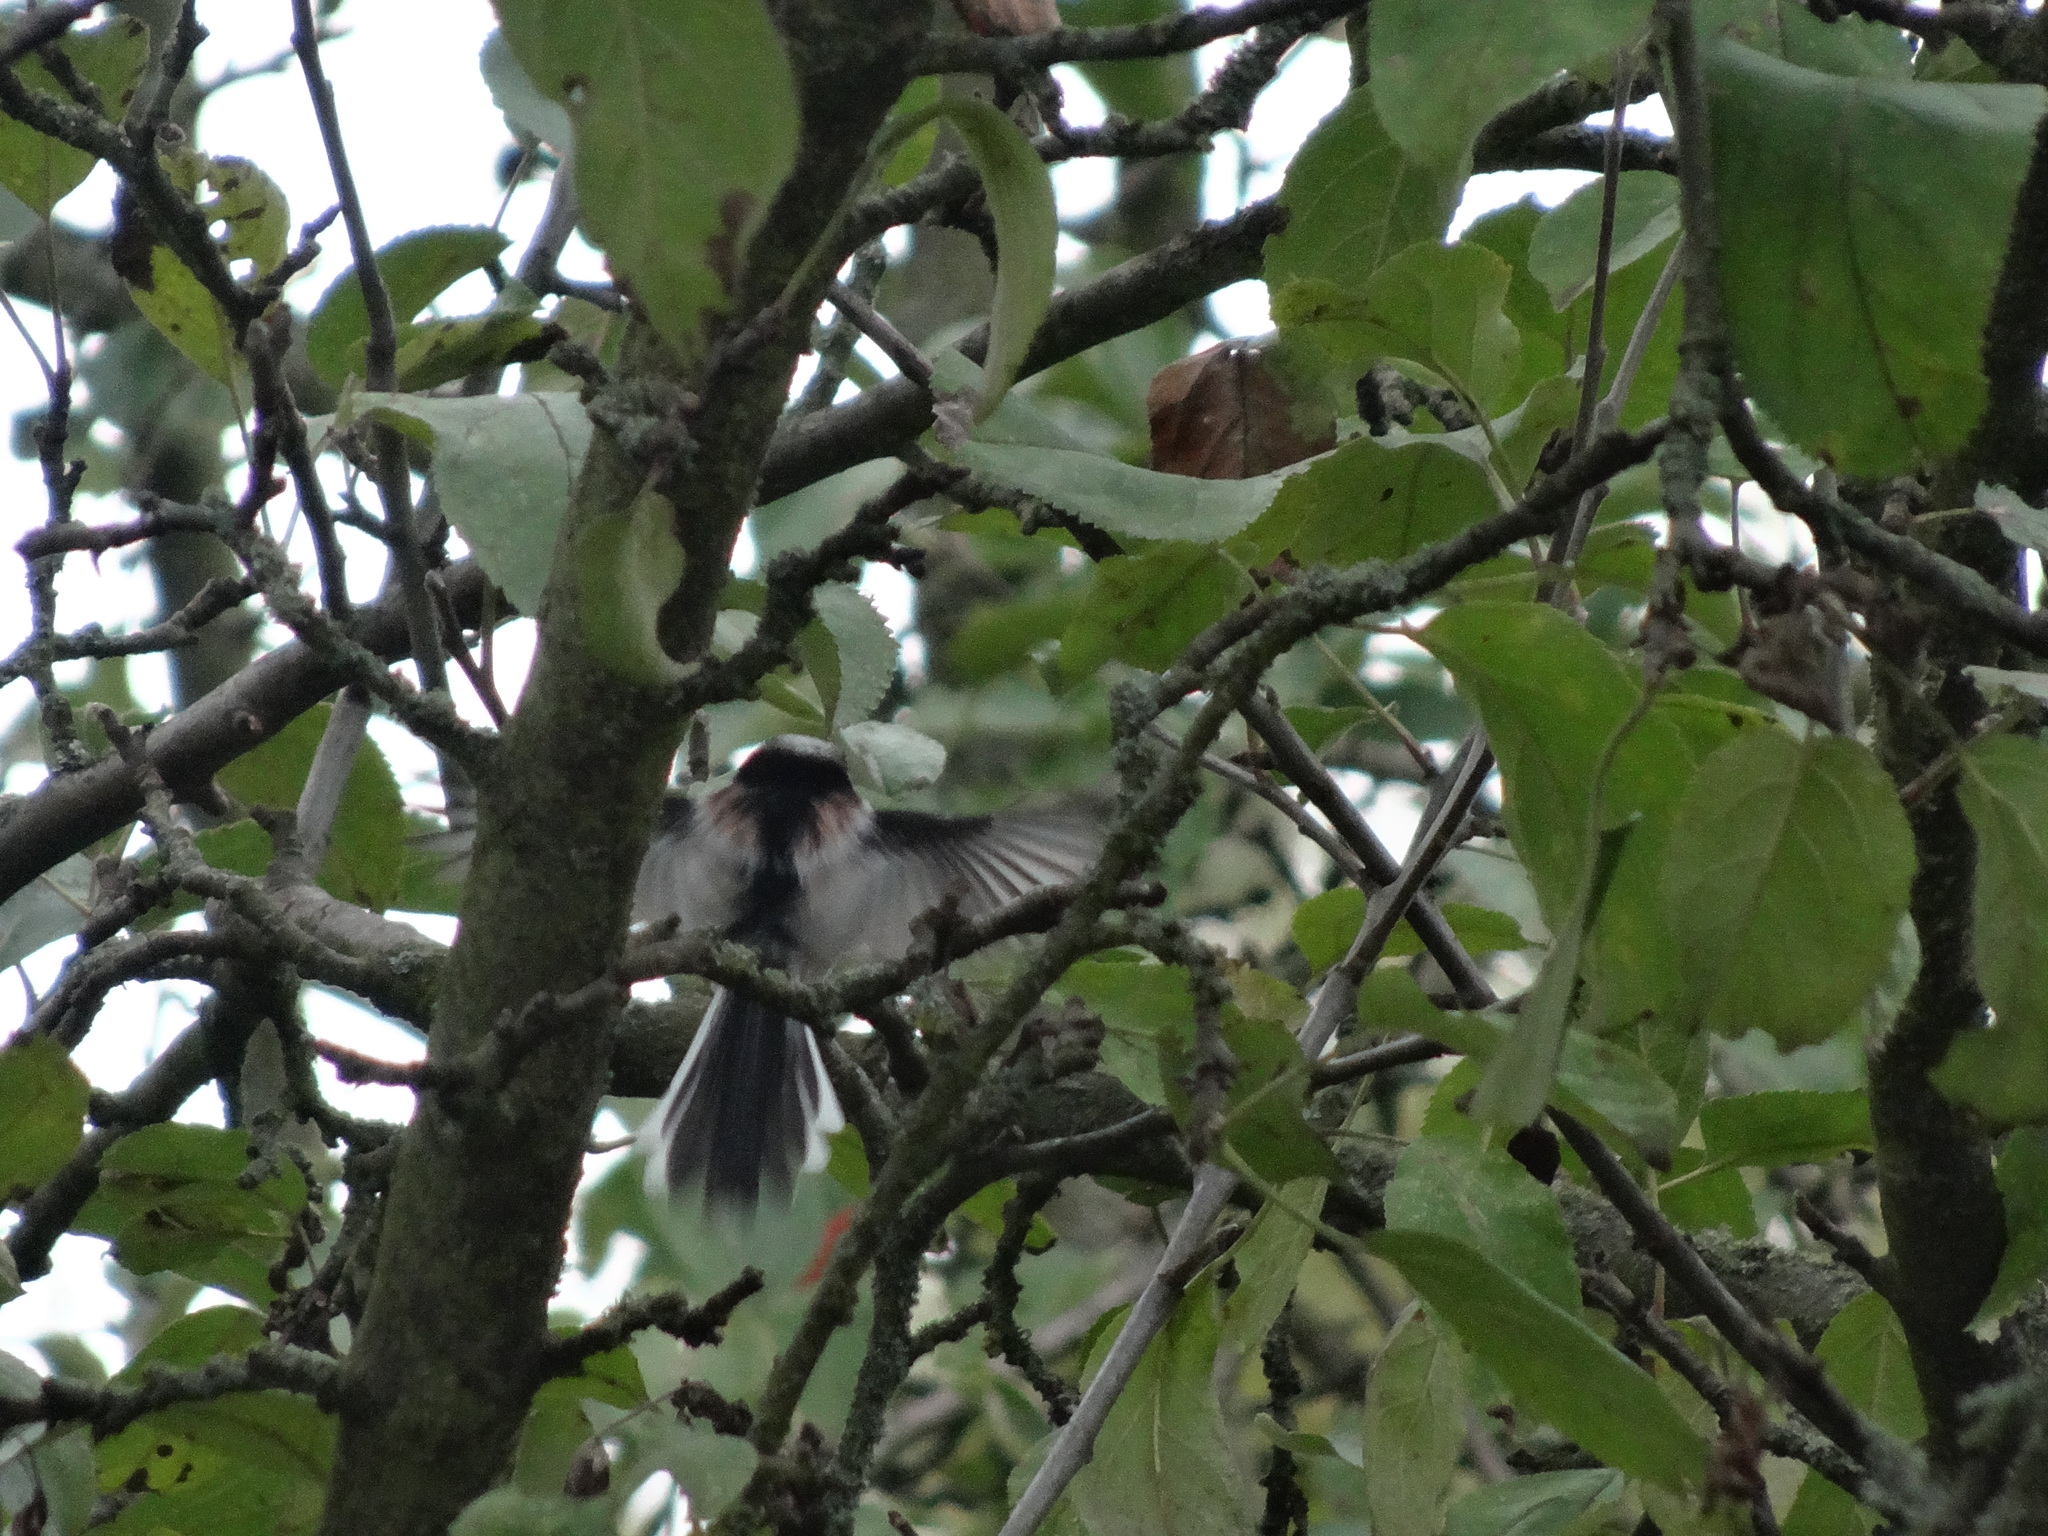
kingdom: Animalia
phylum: Chordata
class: Aves
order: Passeriformes
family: Aegithalidae
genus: Aegithalos
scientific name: Aegithalos caudatus
